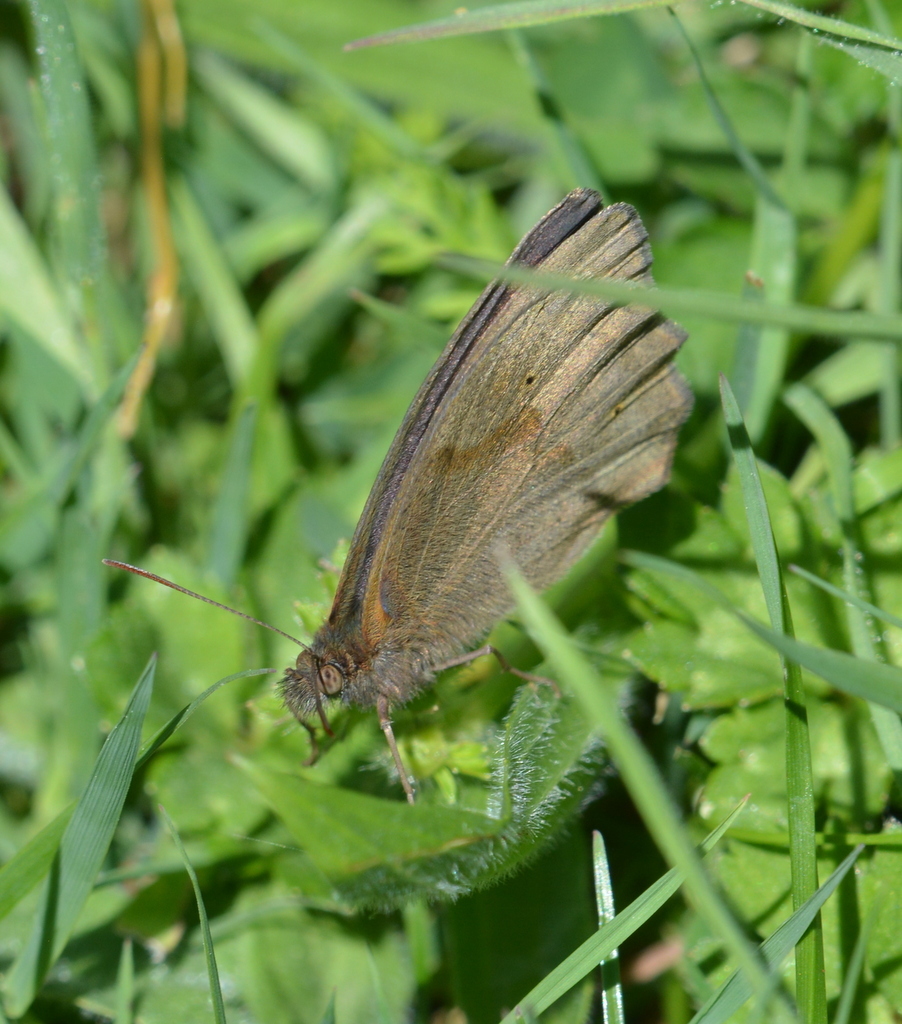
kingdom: Animalia
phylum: Arthropoda
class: Insecta
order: Lepidoptera
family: Nymphalidae
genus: Maniola
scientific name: Maniola jurtina
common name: Meadow brown
